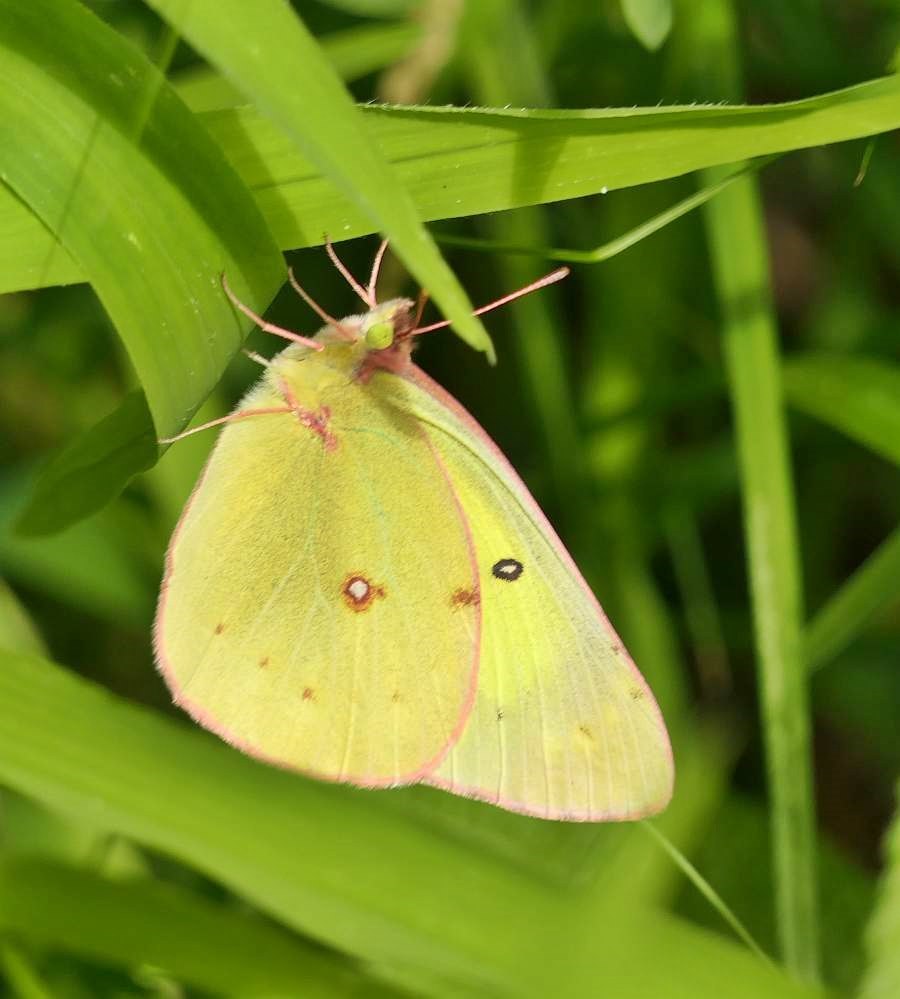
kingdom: Animalia
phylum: Arthropoda
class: Insecta
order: Lepidoptera
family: Pieridae
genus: Colias
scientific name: Colias philodice
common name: Clouded sulphur
